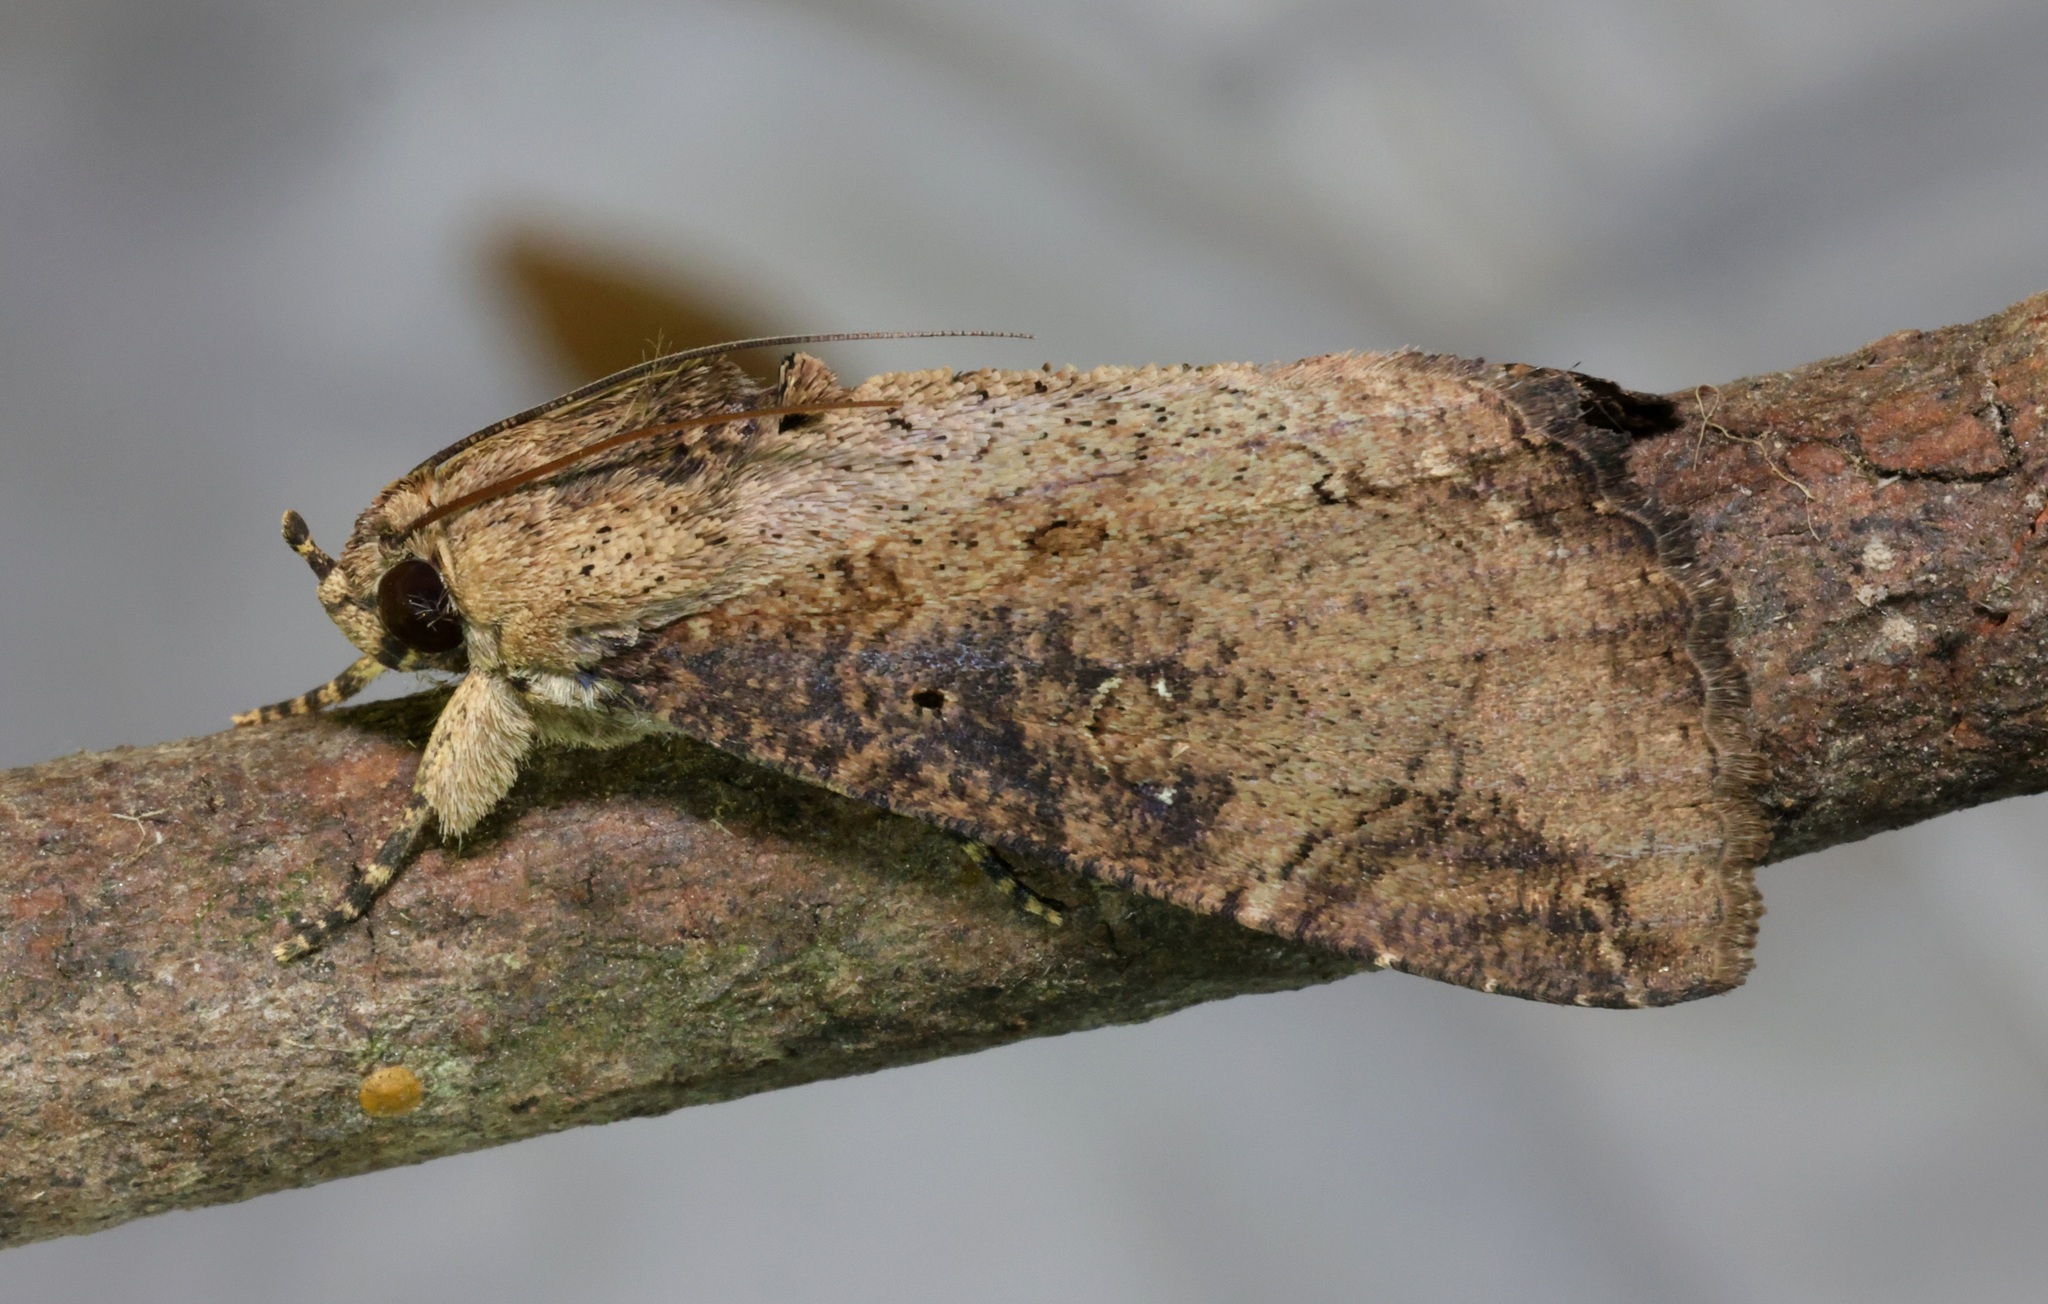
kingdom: Animalia
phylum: Arthropoda
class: Insecta
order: Lepidoptera
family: Erebidae
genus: Ercheia
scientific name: Ercheia cyllaria
